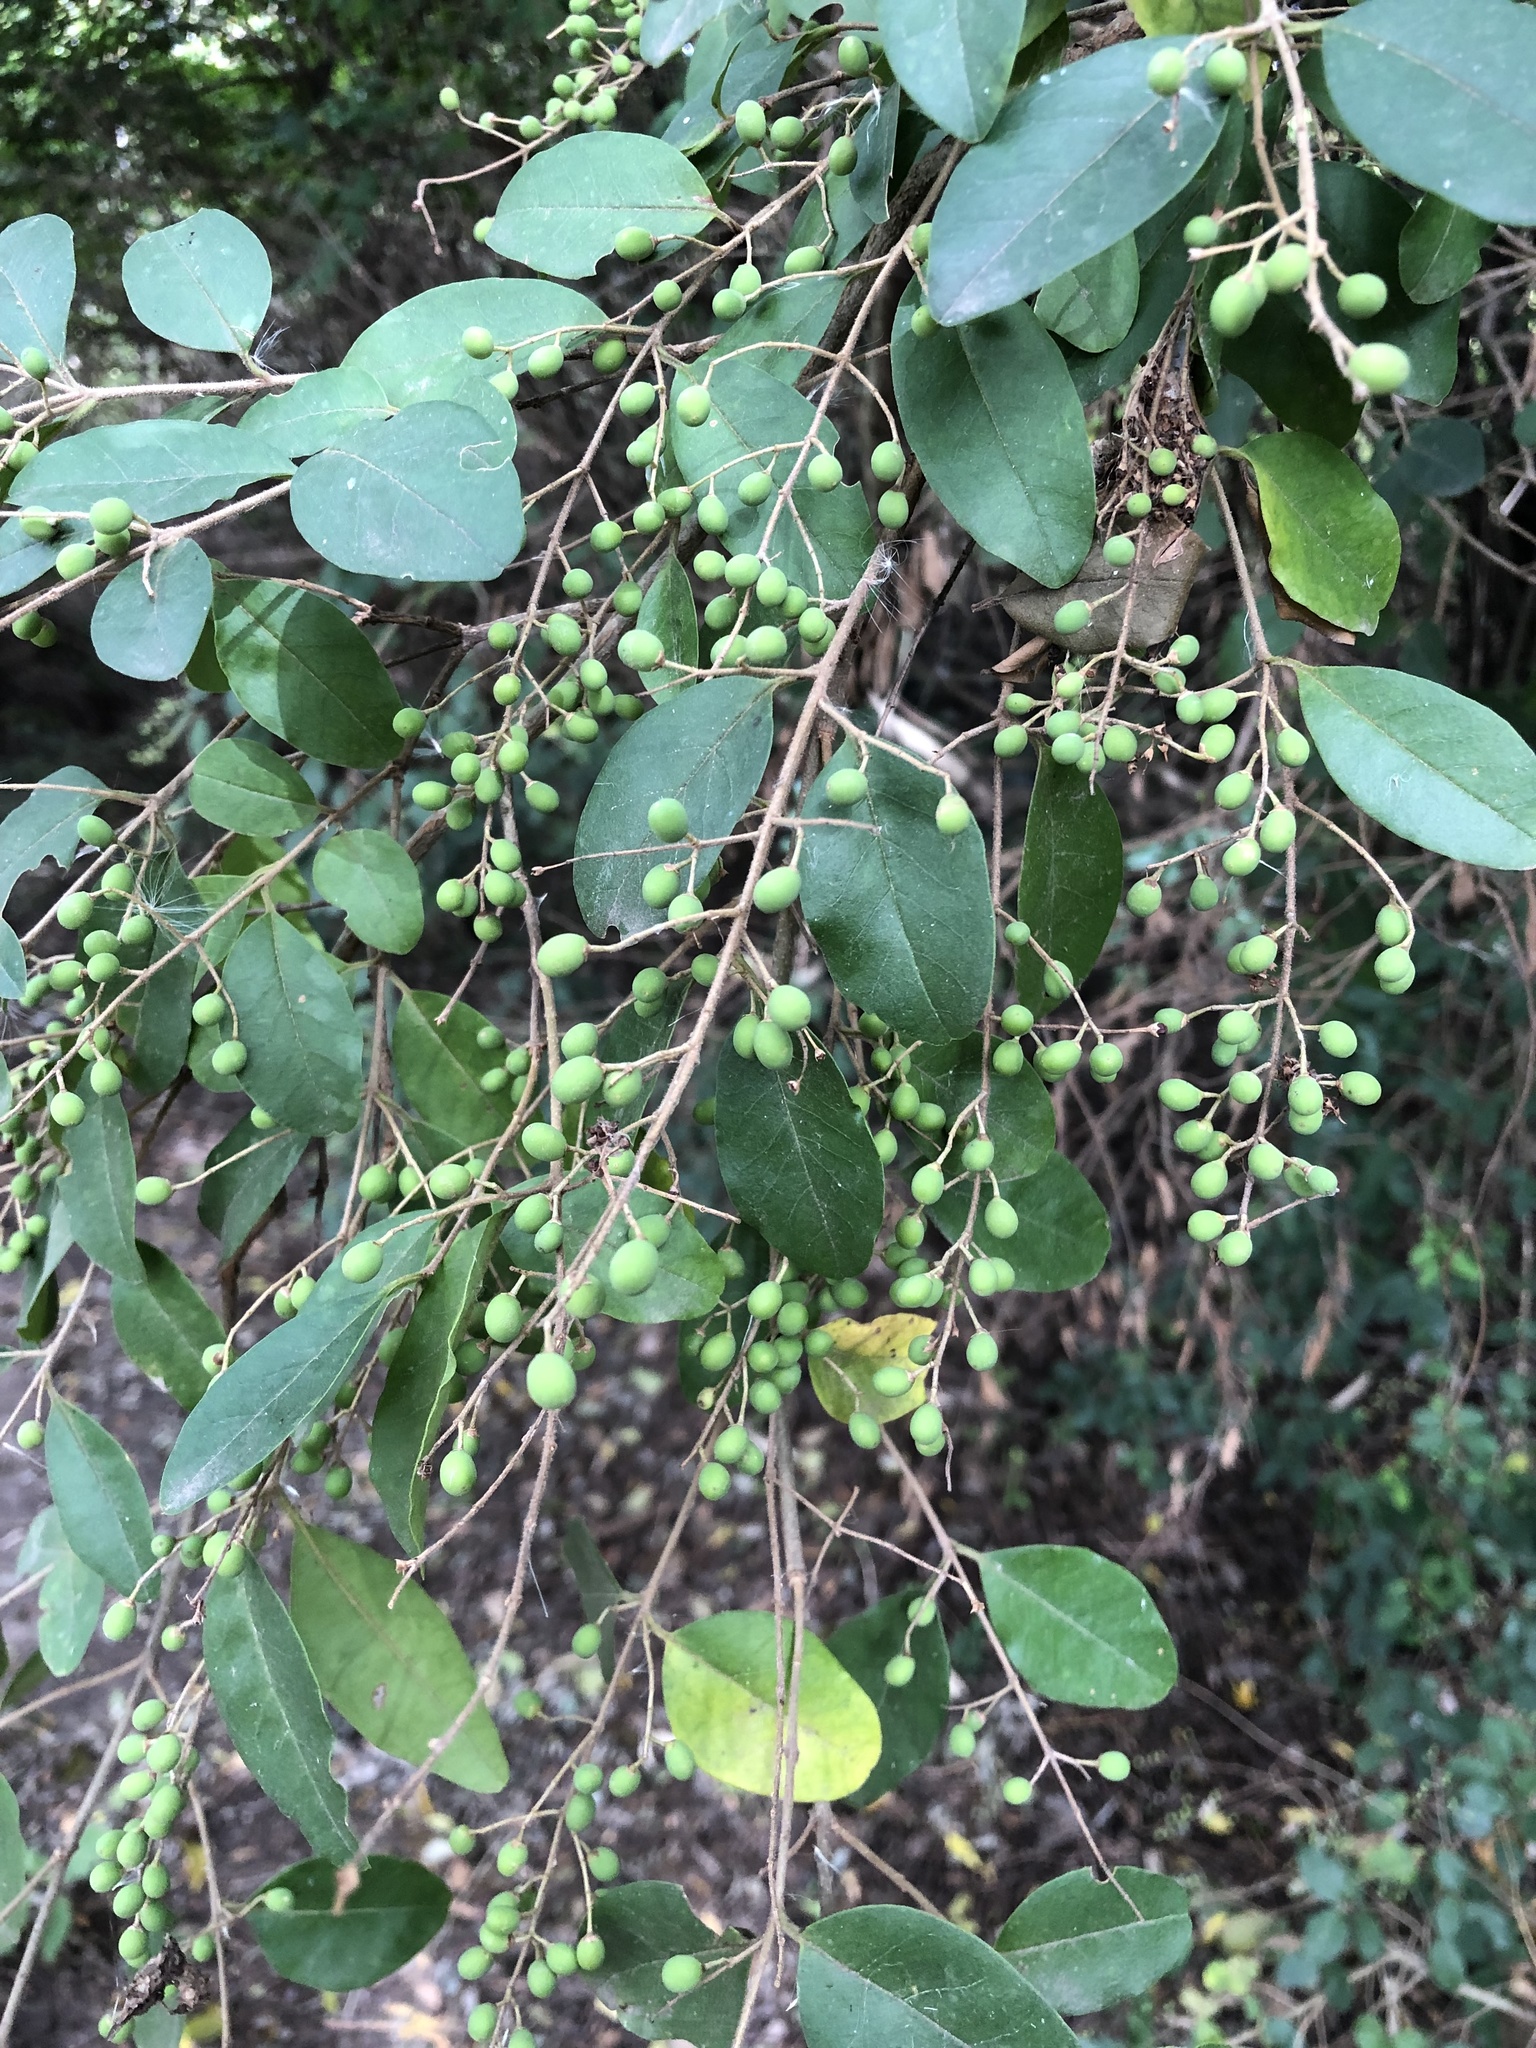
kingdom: Plantae
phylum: Tracheophyta
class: Magnoliopsida
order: Lamiales
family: Oleaceae
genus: Ligustrum
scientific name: Ligustrum sinense
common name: Chinese privet
